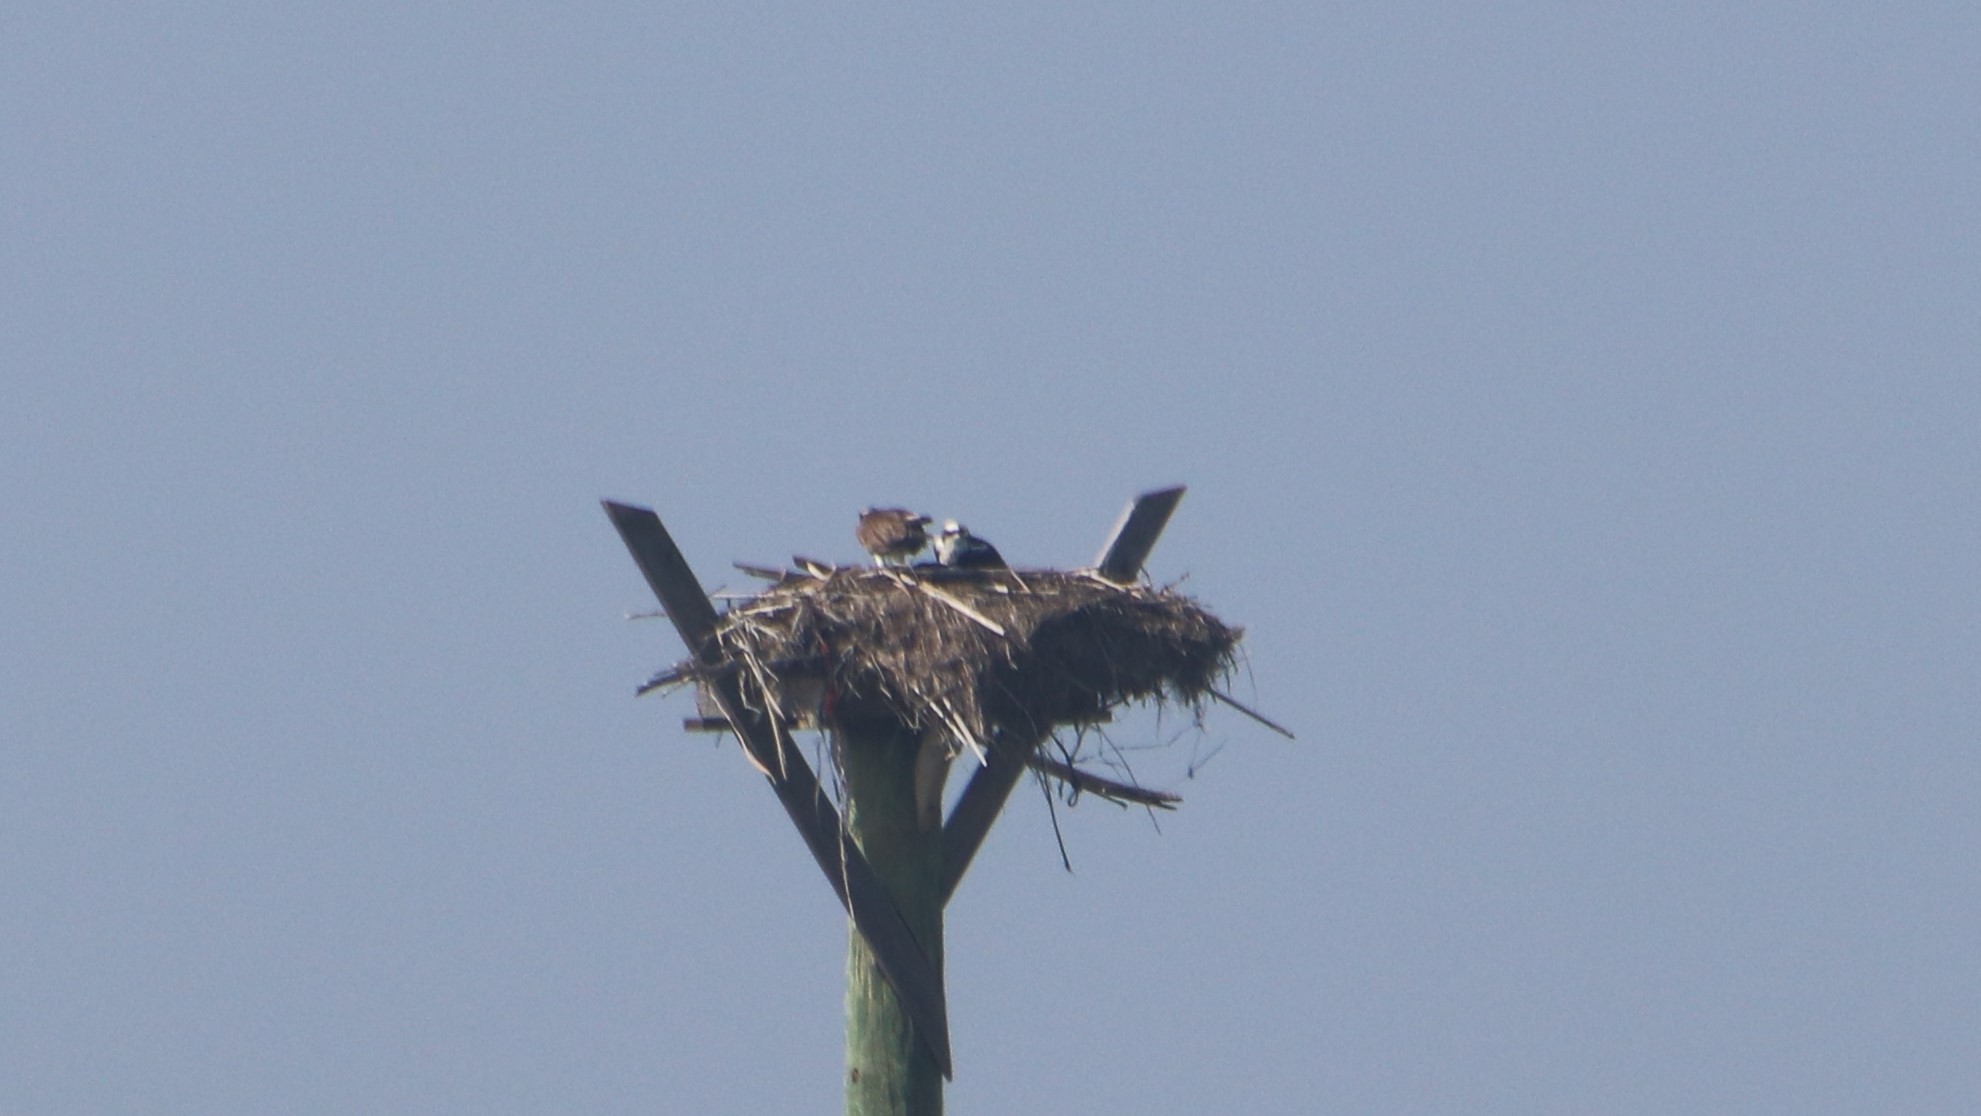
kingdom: Animalia
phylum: Chordata
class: Aves
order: Accipitriformes
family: Pandionidae
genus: Pandion
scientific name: Pandion haliaetus
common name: Osprey
